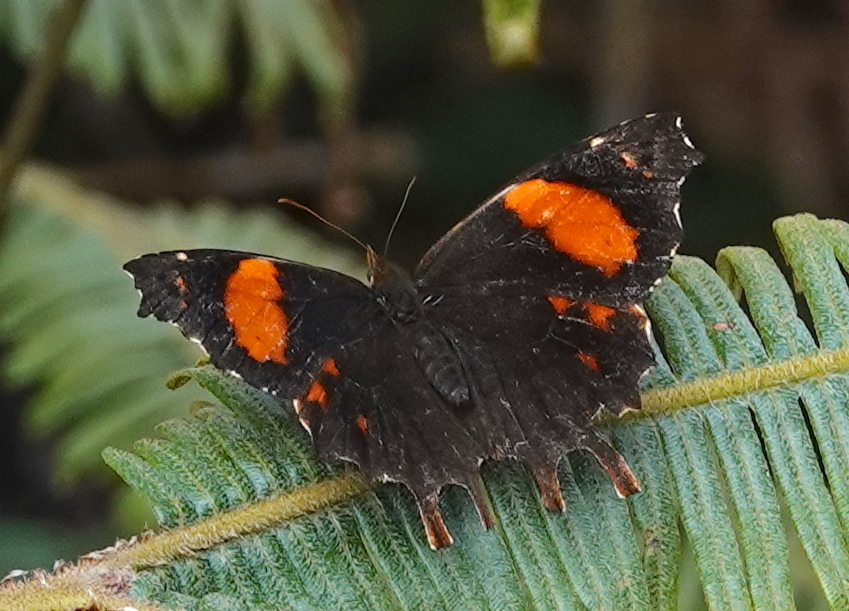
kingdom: Animalia
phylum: Arthropoda
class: Insecta
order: Lepidoptera
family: Nymphalidae
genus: Daedalma
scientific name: Daedalma dinias
